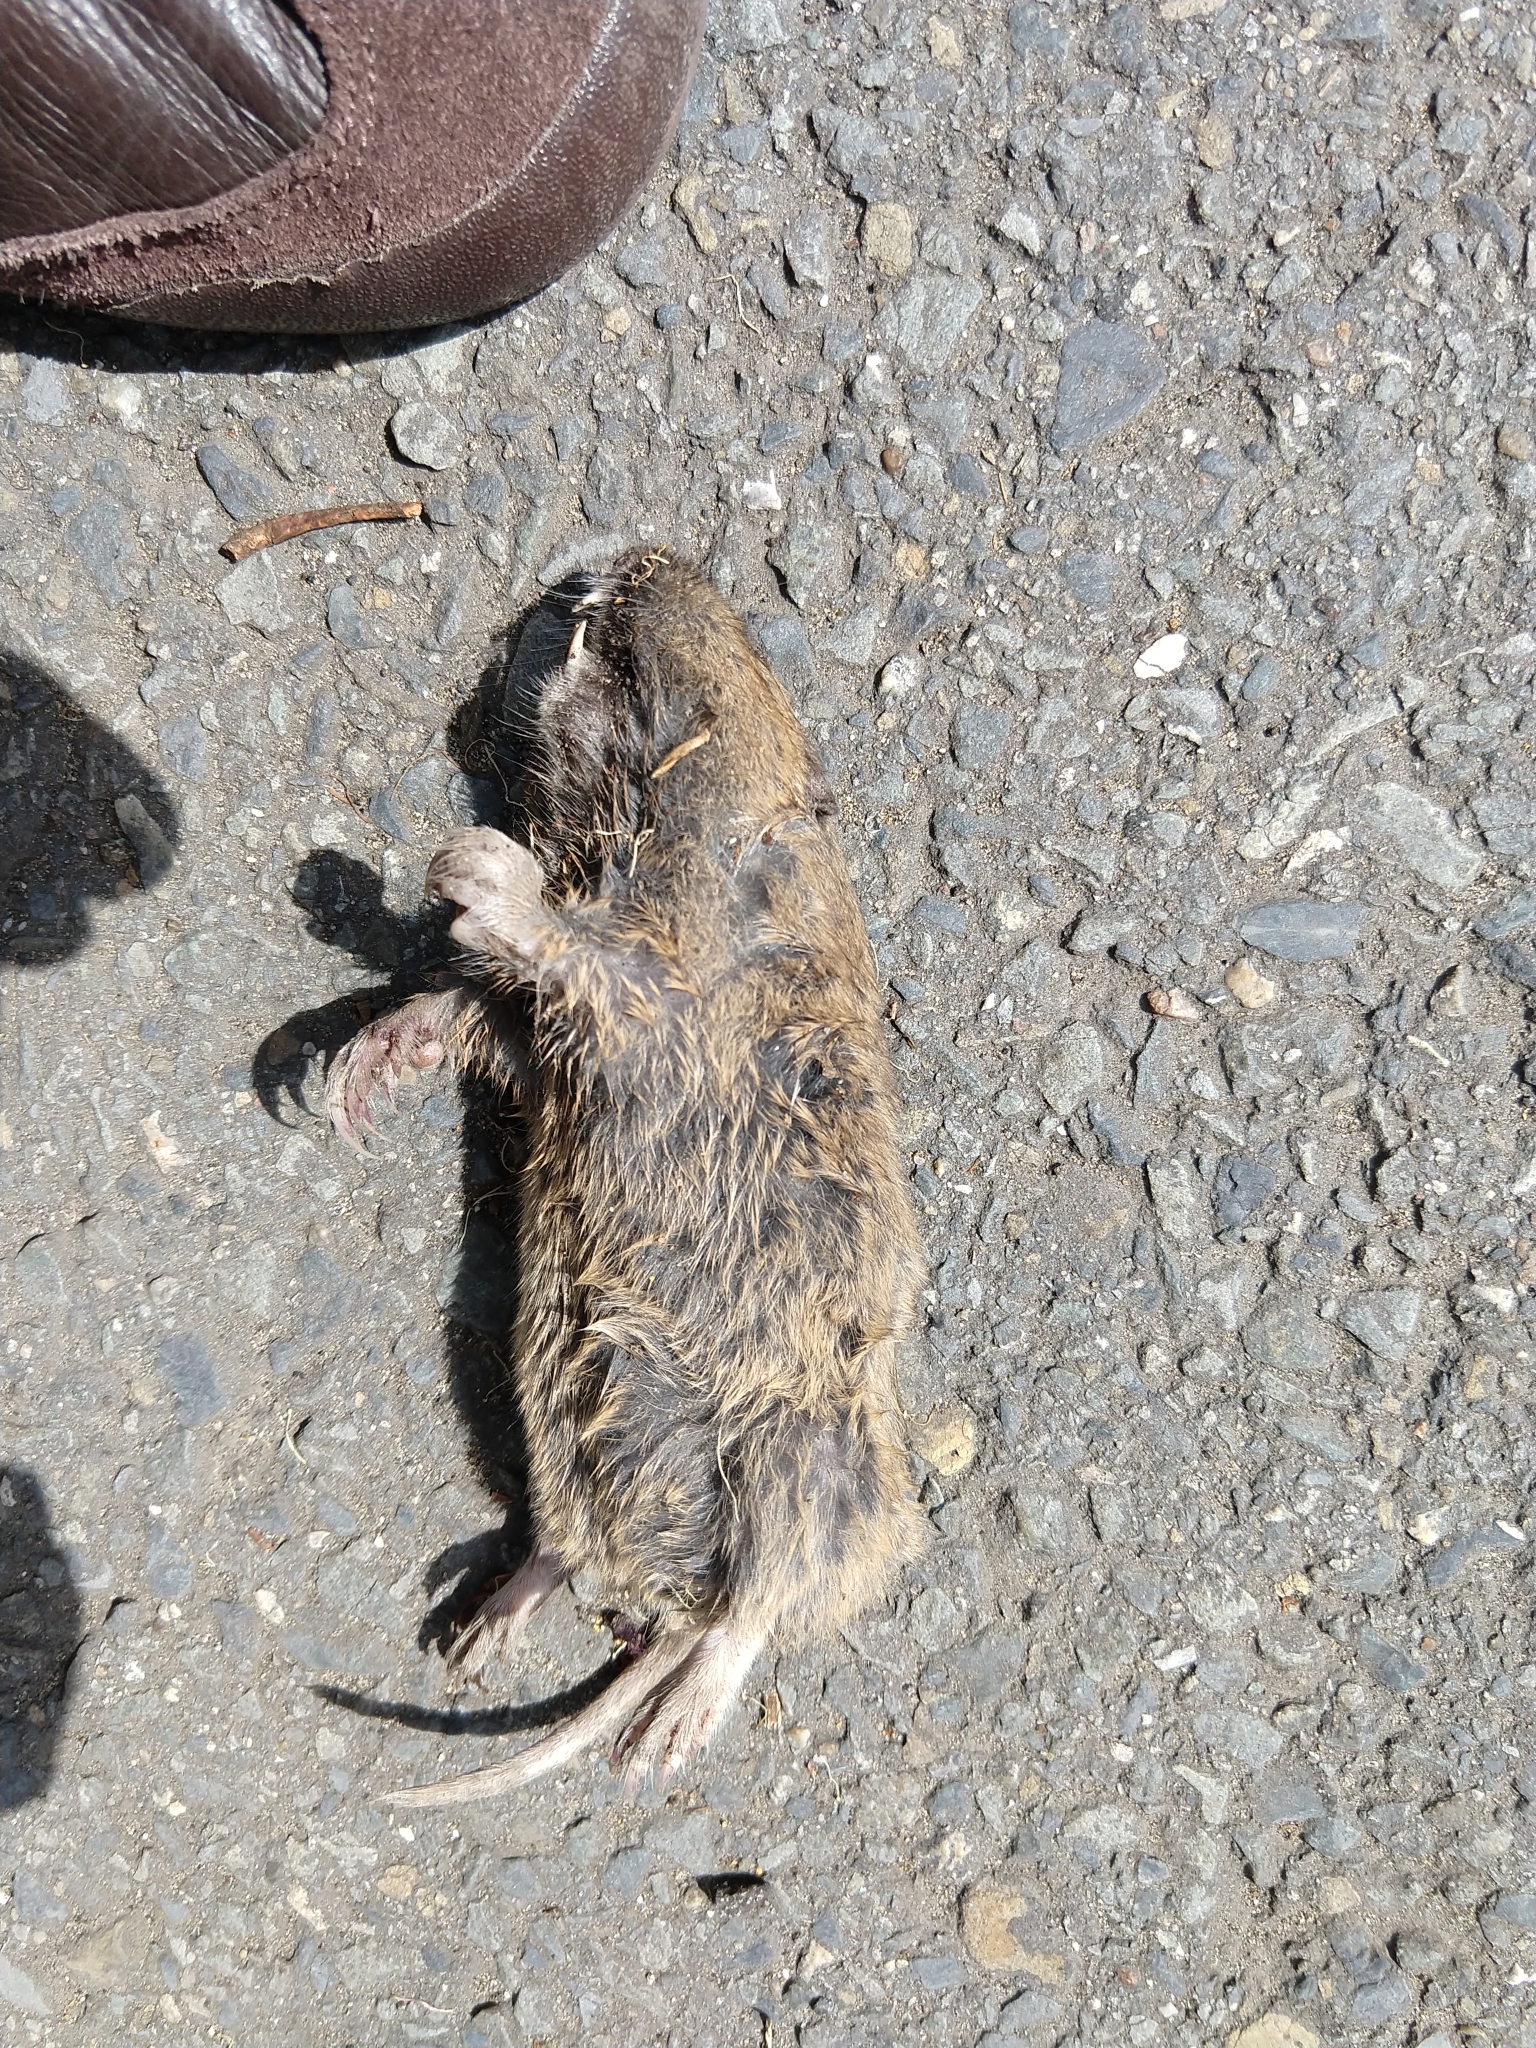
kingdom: Animalia
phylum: Chordata
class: Mammalia
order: Rodentia
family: Geomyidae
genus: Thomomys
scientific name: Thomomys bottae
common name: Botta's pocket gopher
